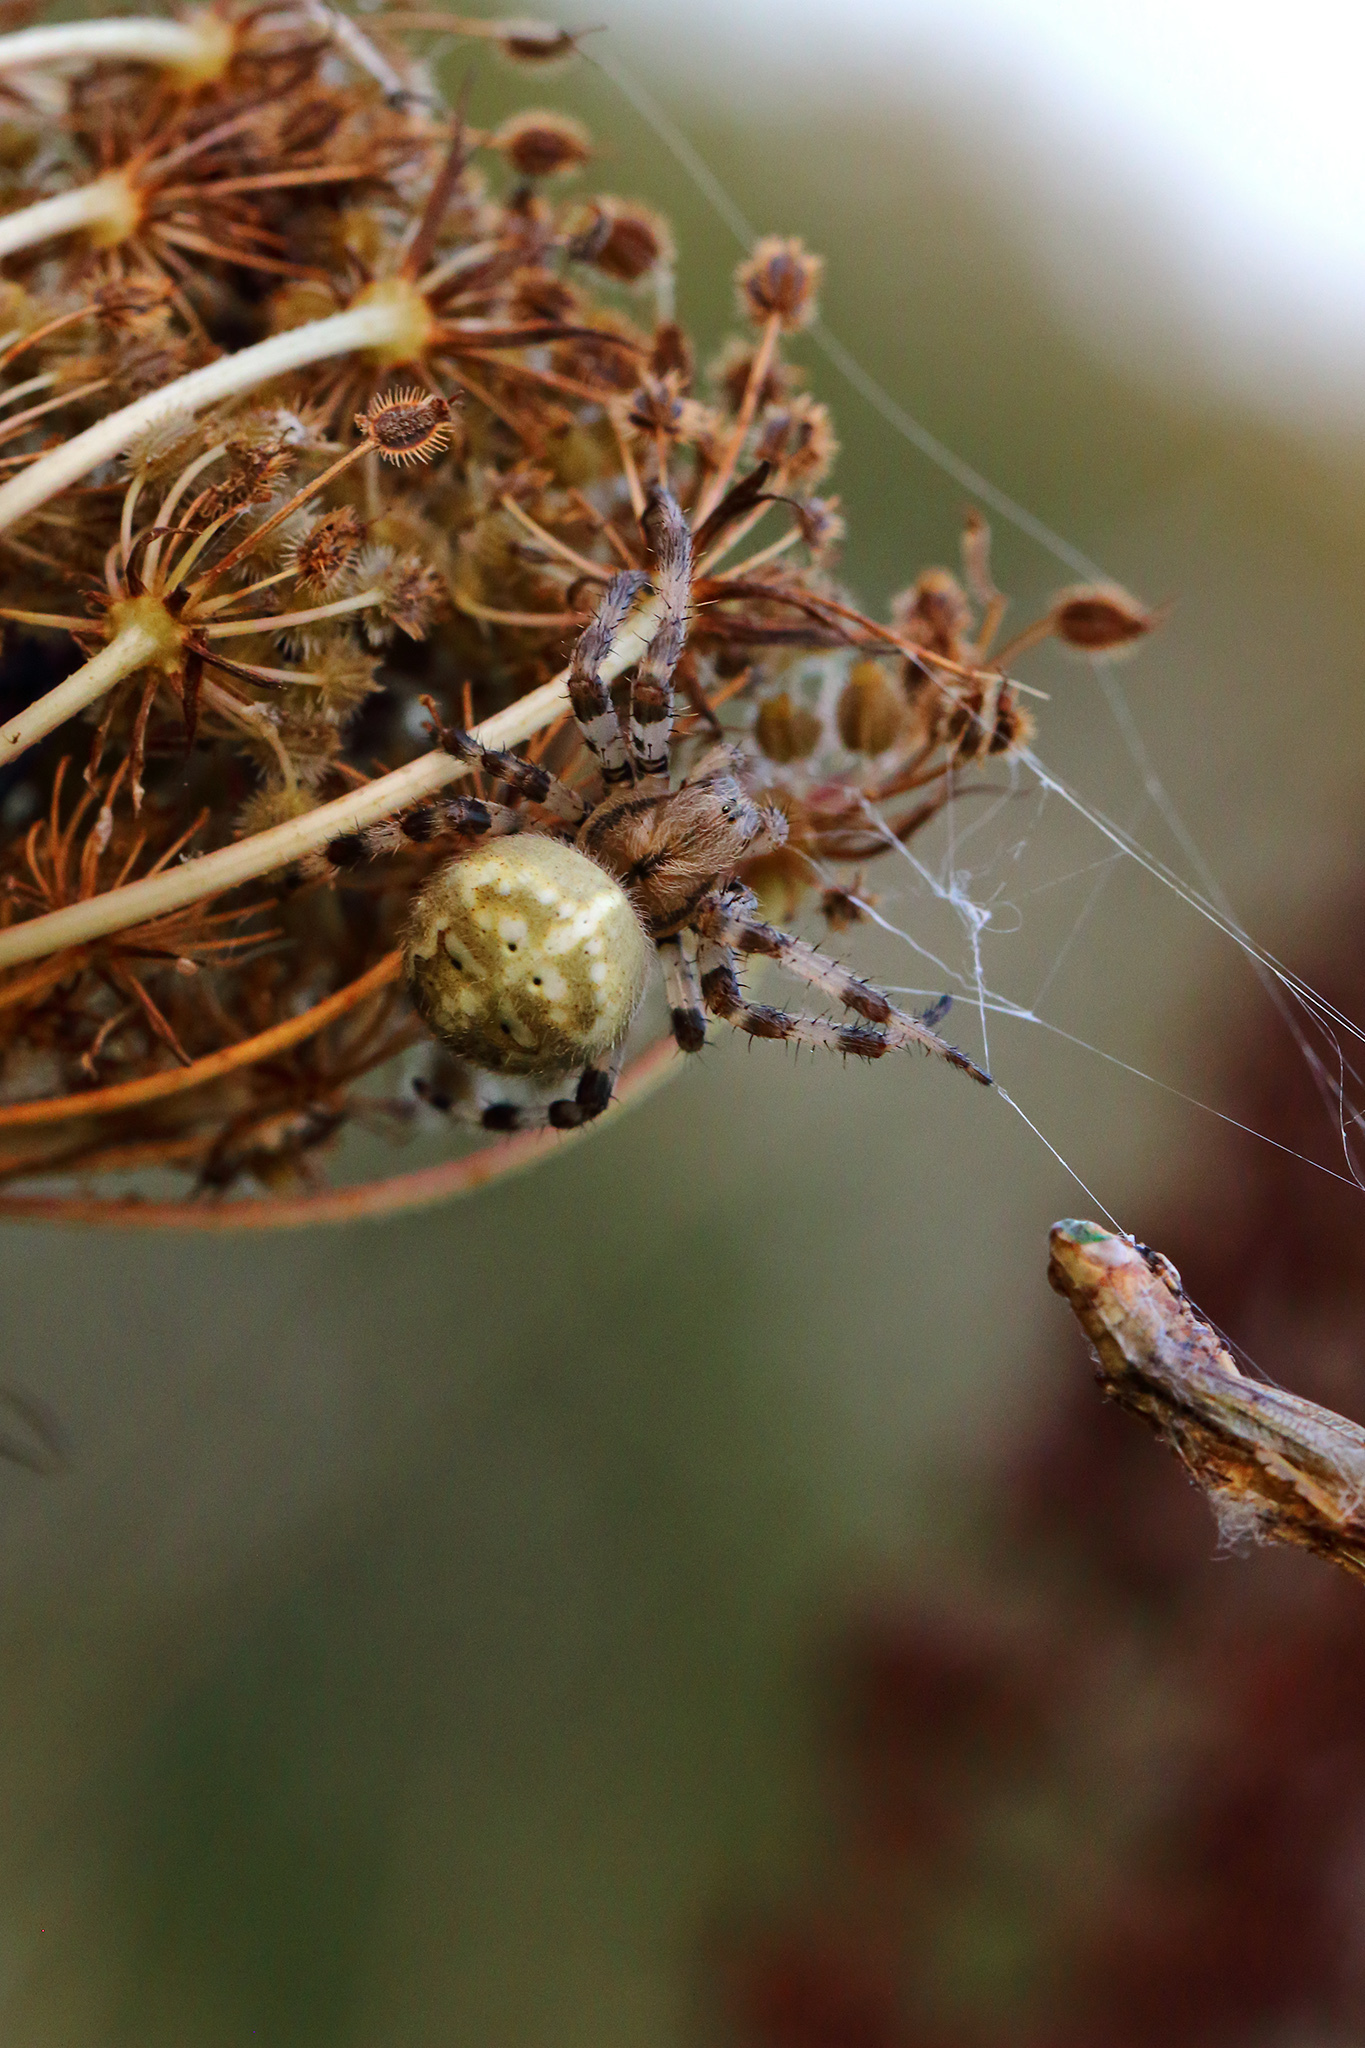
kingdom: Animalia
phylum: Arthropoda
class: Arachnida
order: Araneae
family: Araneidae
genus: Araneus
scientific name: Araneus quadratus
